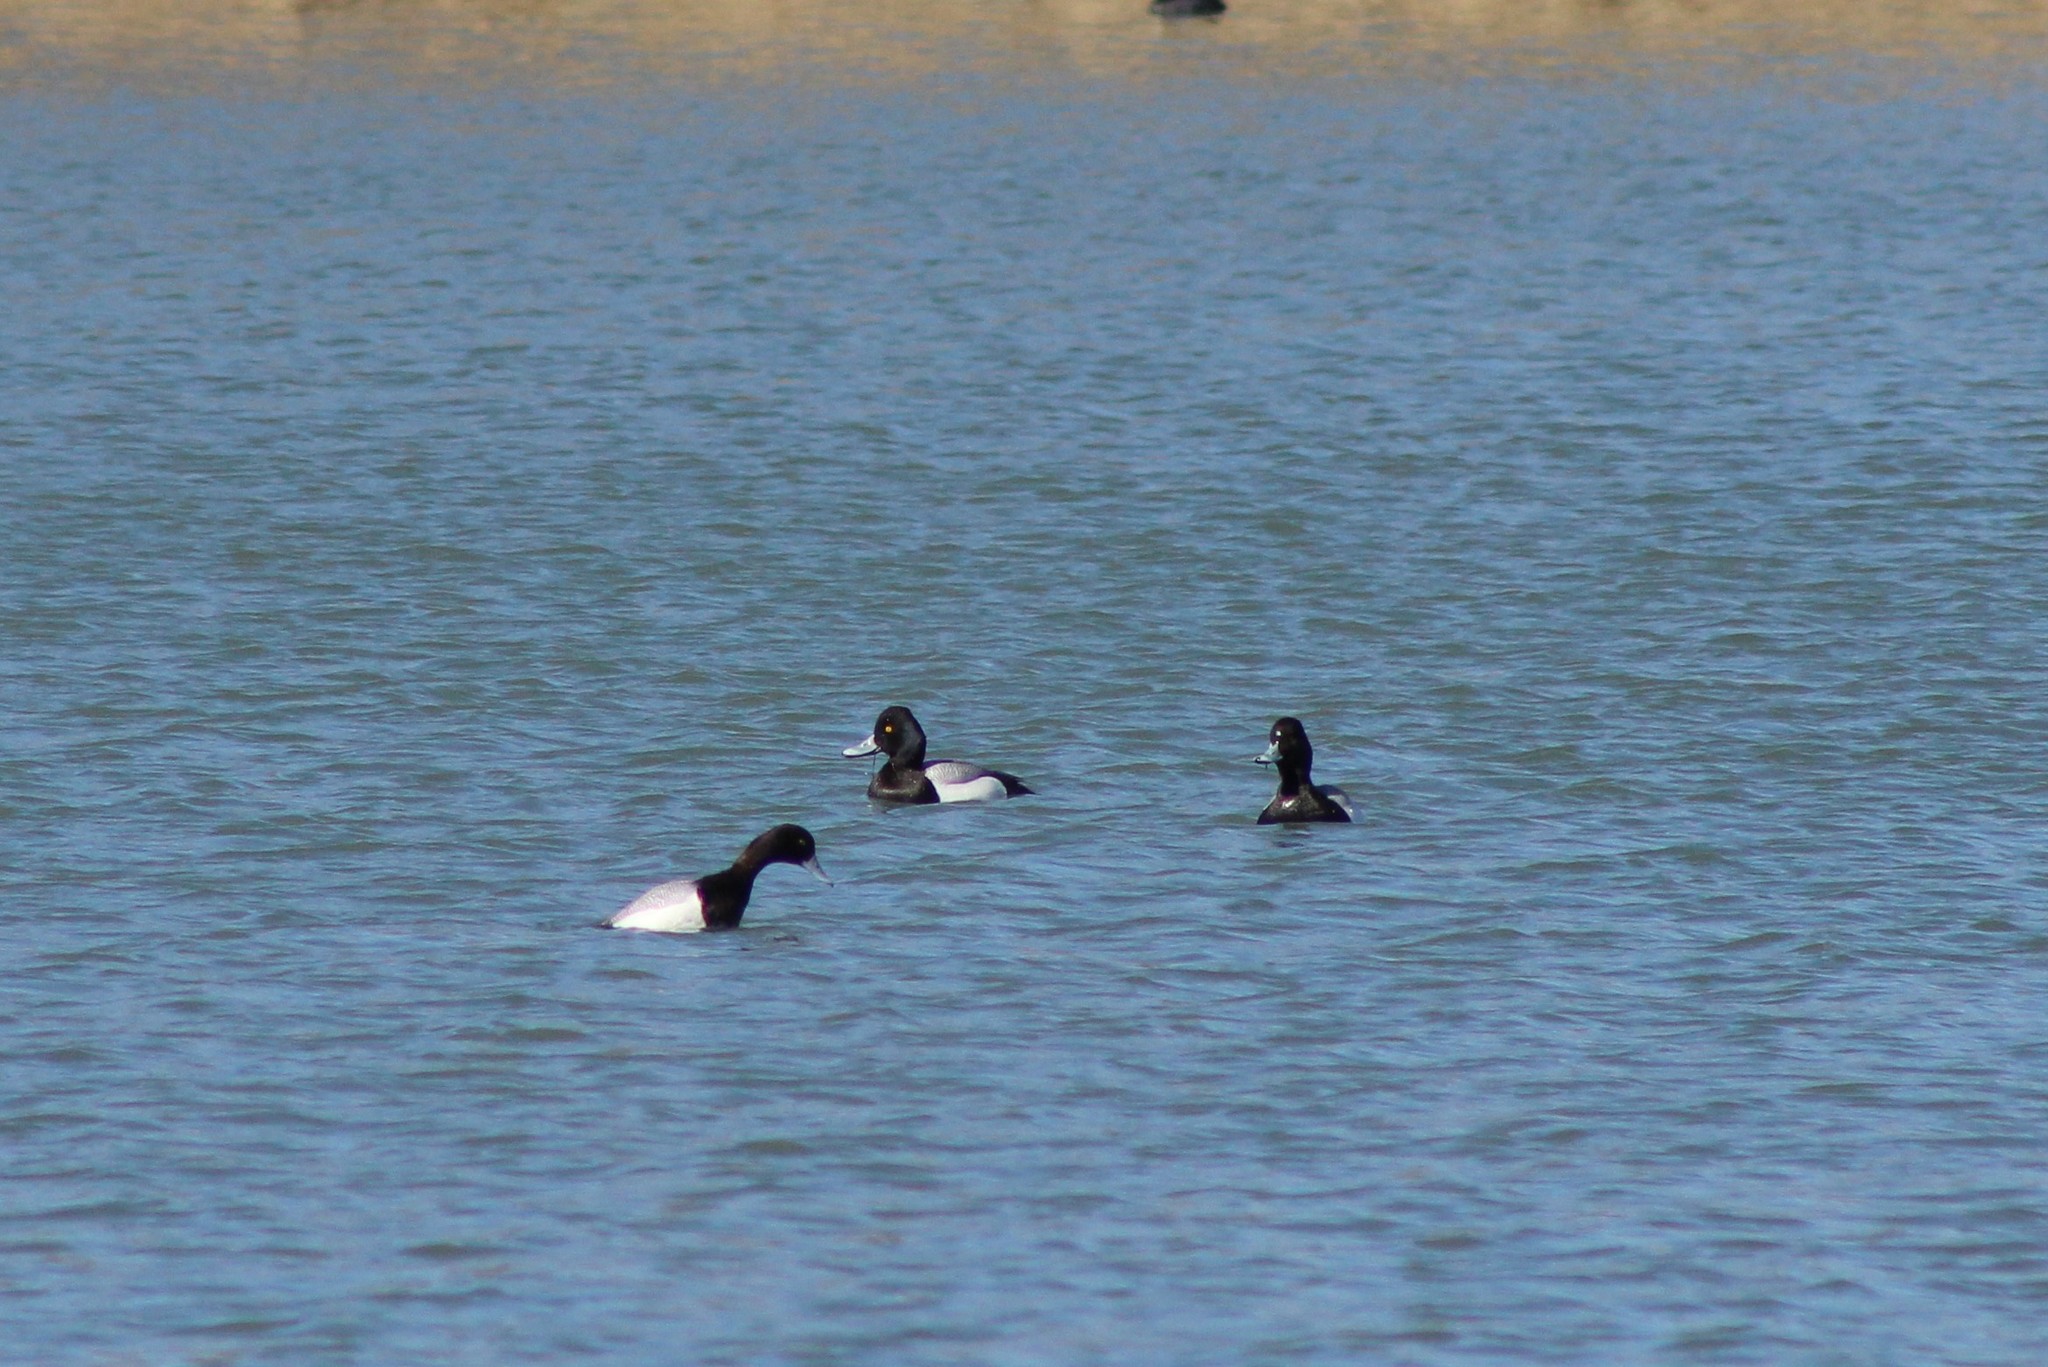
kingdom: Animalia
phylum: Chordata
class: Aves
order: Anseriformes
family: Anatidae
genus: Aythya
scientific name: Aythya affinis
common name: Lesser scaup
